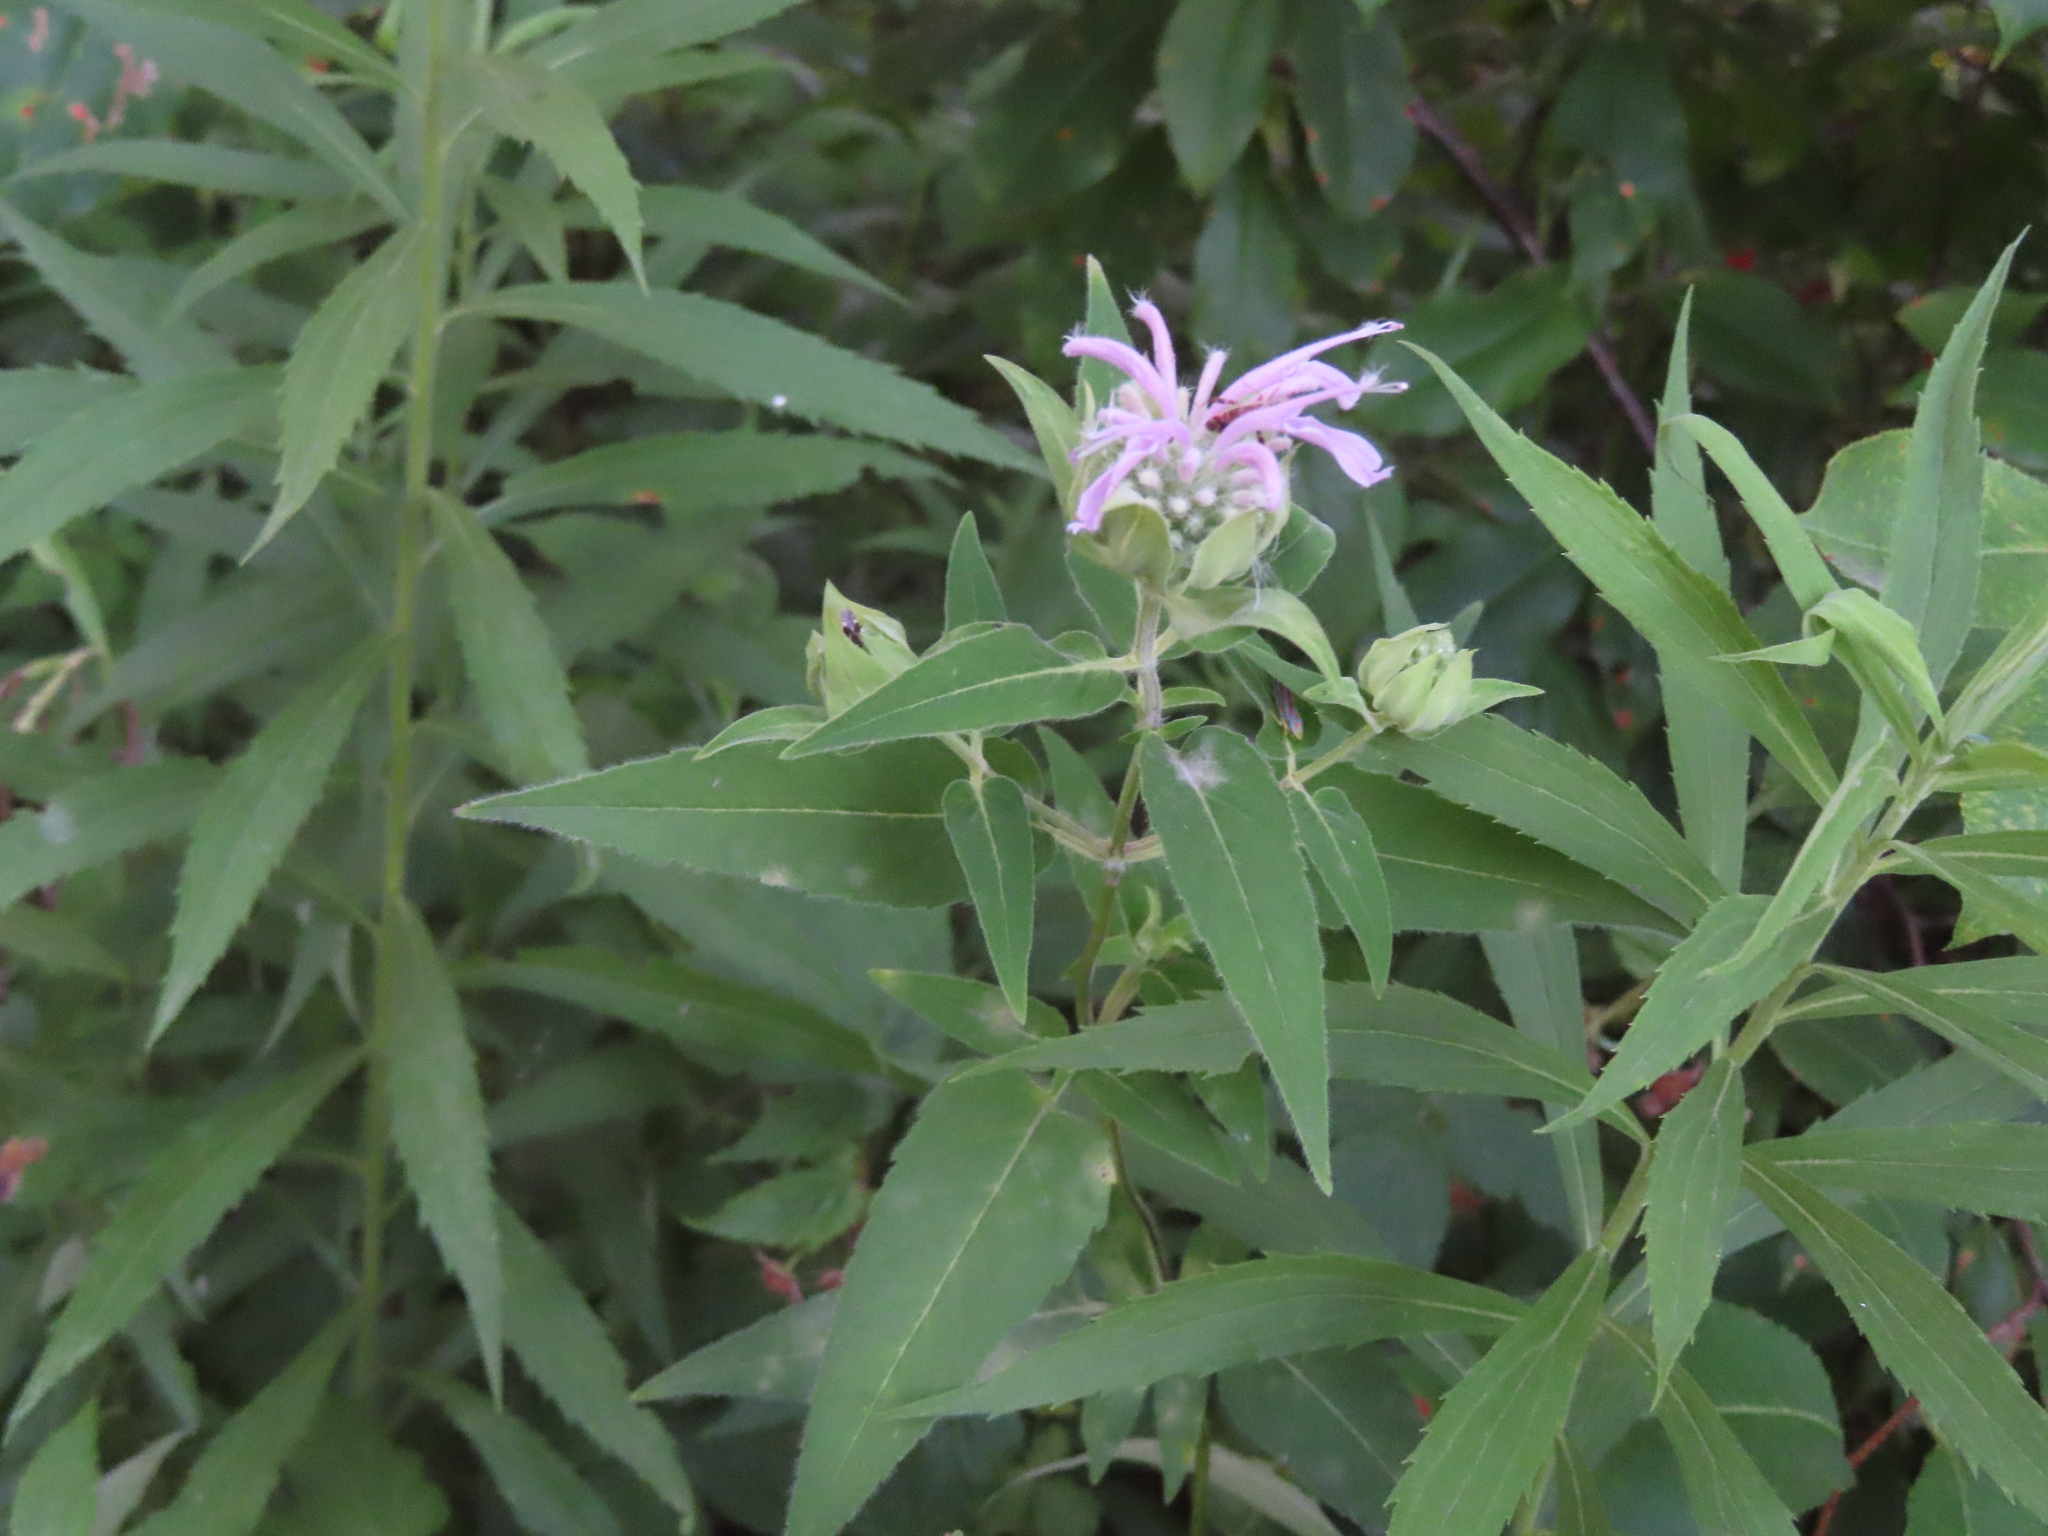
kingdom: Plantae
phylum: Tracheophyta
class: Magnoliopsida
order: Lamiales
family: Lamiaceae
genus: Monarda
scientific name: Monarda fistulosa
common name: Purple beebalm
